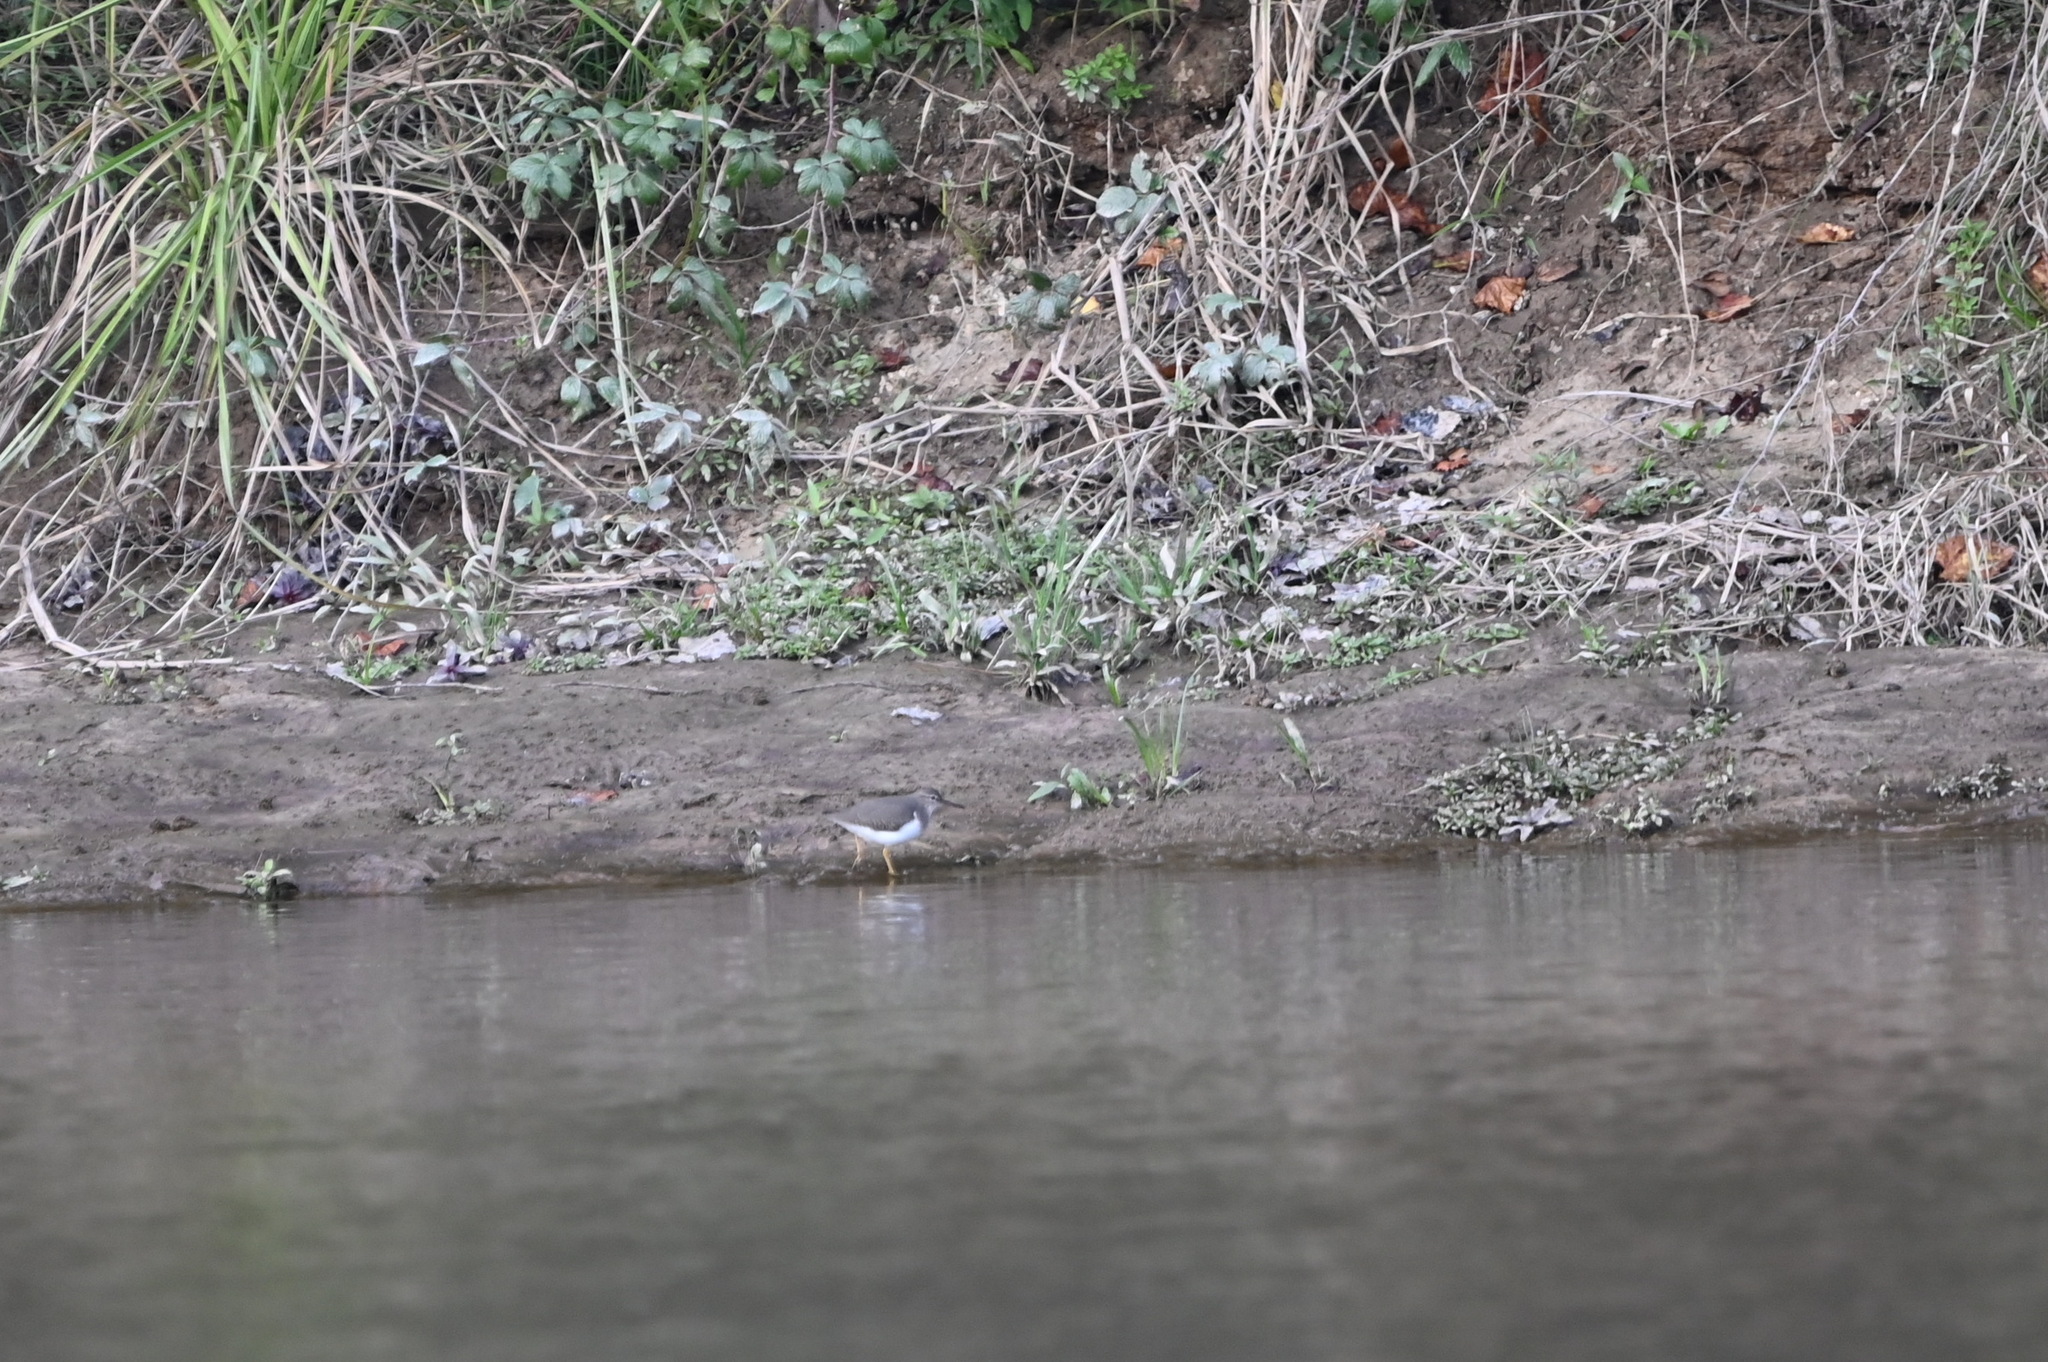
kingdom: Animalia
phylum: Chordata
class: Aves
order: Charadriiformes
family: Scolopacidae
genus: Actitis
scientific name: Actitis macularius
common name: Spotted sandpiper
